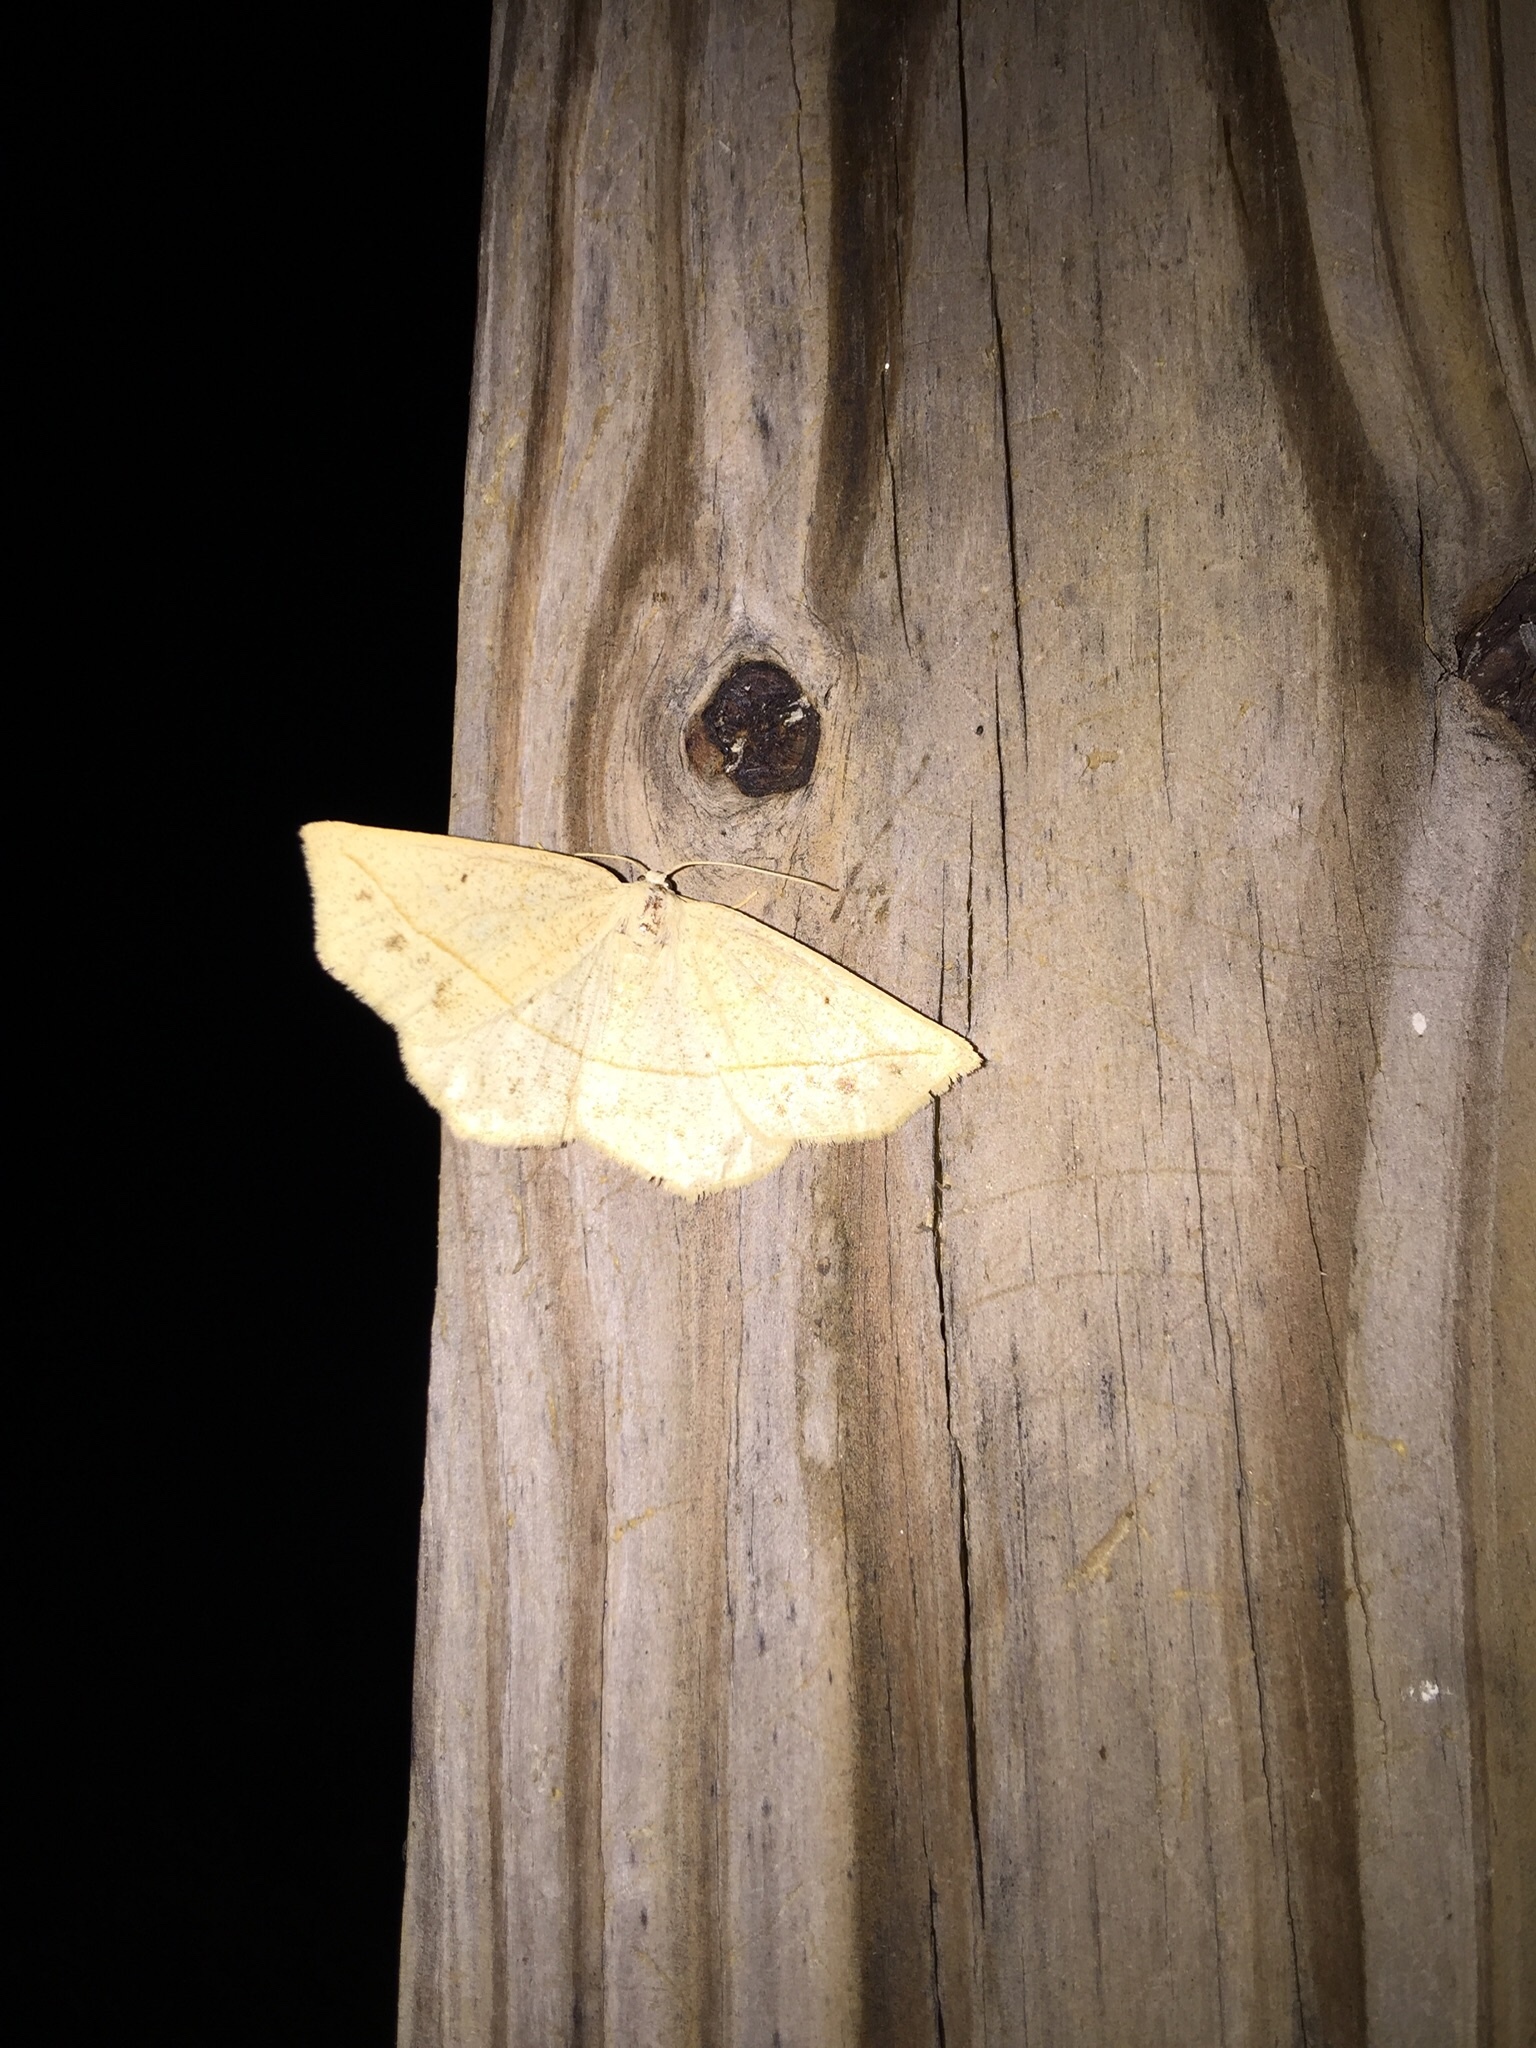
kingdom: Animalia
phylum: Arthropoda
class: Insecta
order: Lepidoptera
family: Geometridae
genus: Eusarca
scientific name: Eusarca confusaria
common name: Confused eusarca
